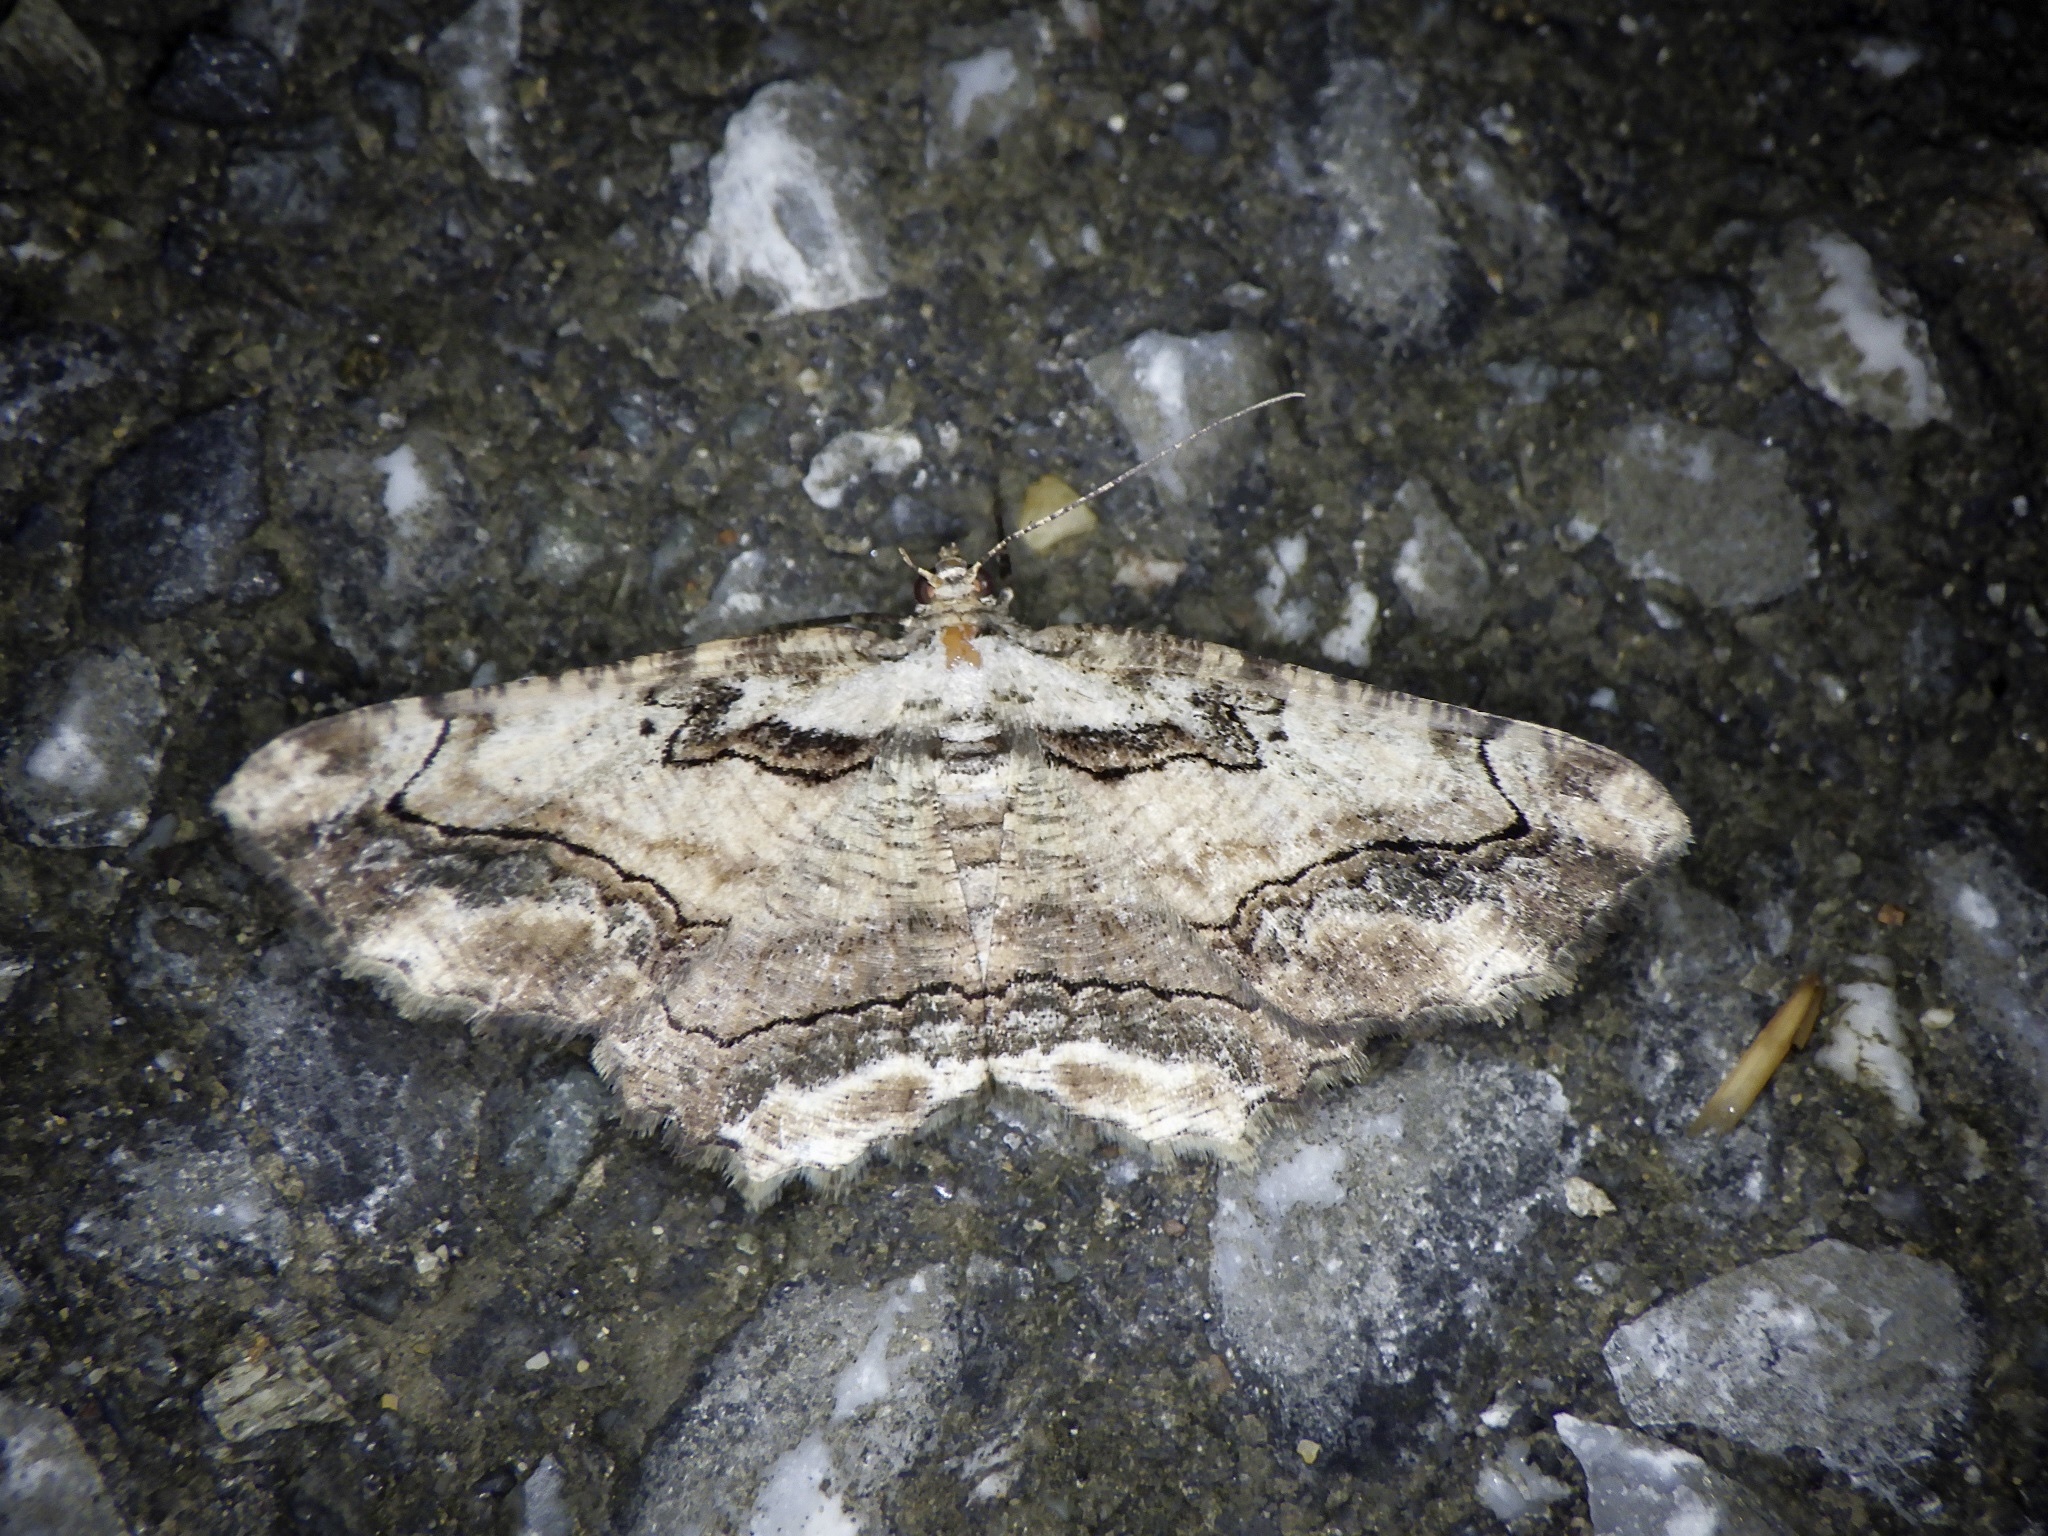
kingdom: Animalia
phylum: Arthropoda
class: Insecta
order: Lepidoptera
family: Geometridae
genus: Menophra
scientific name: Menophra senilis
